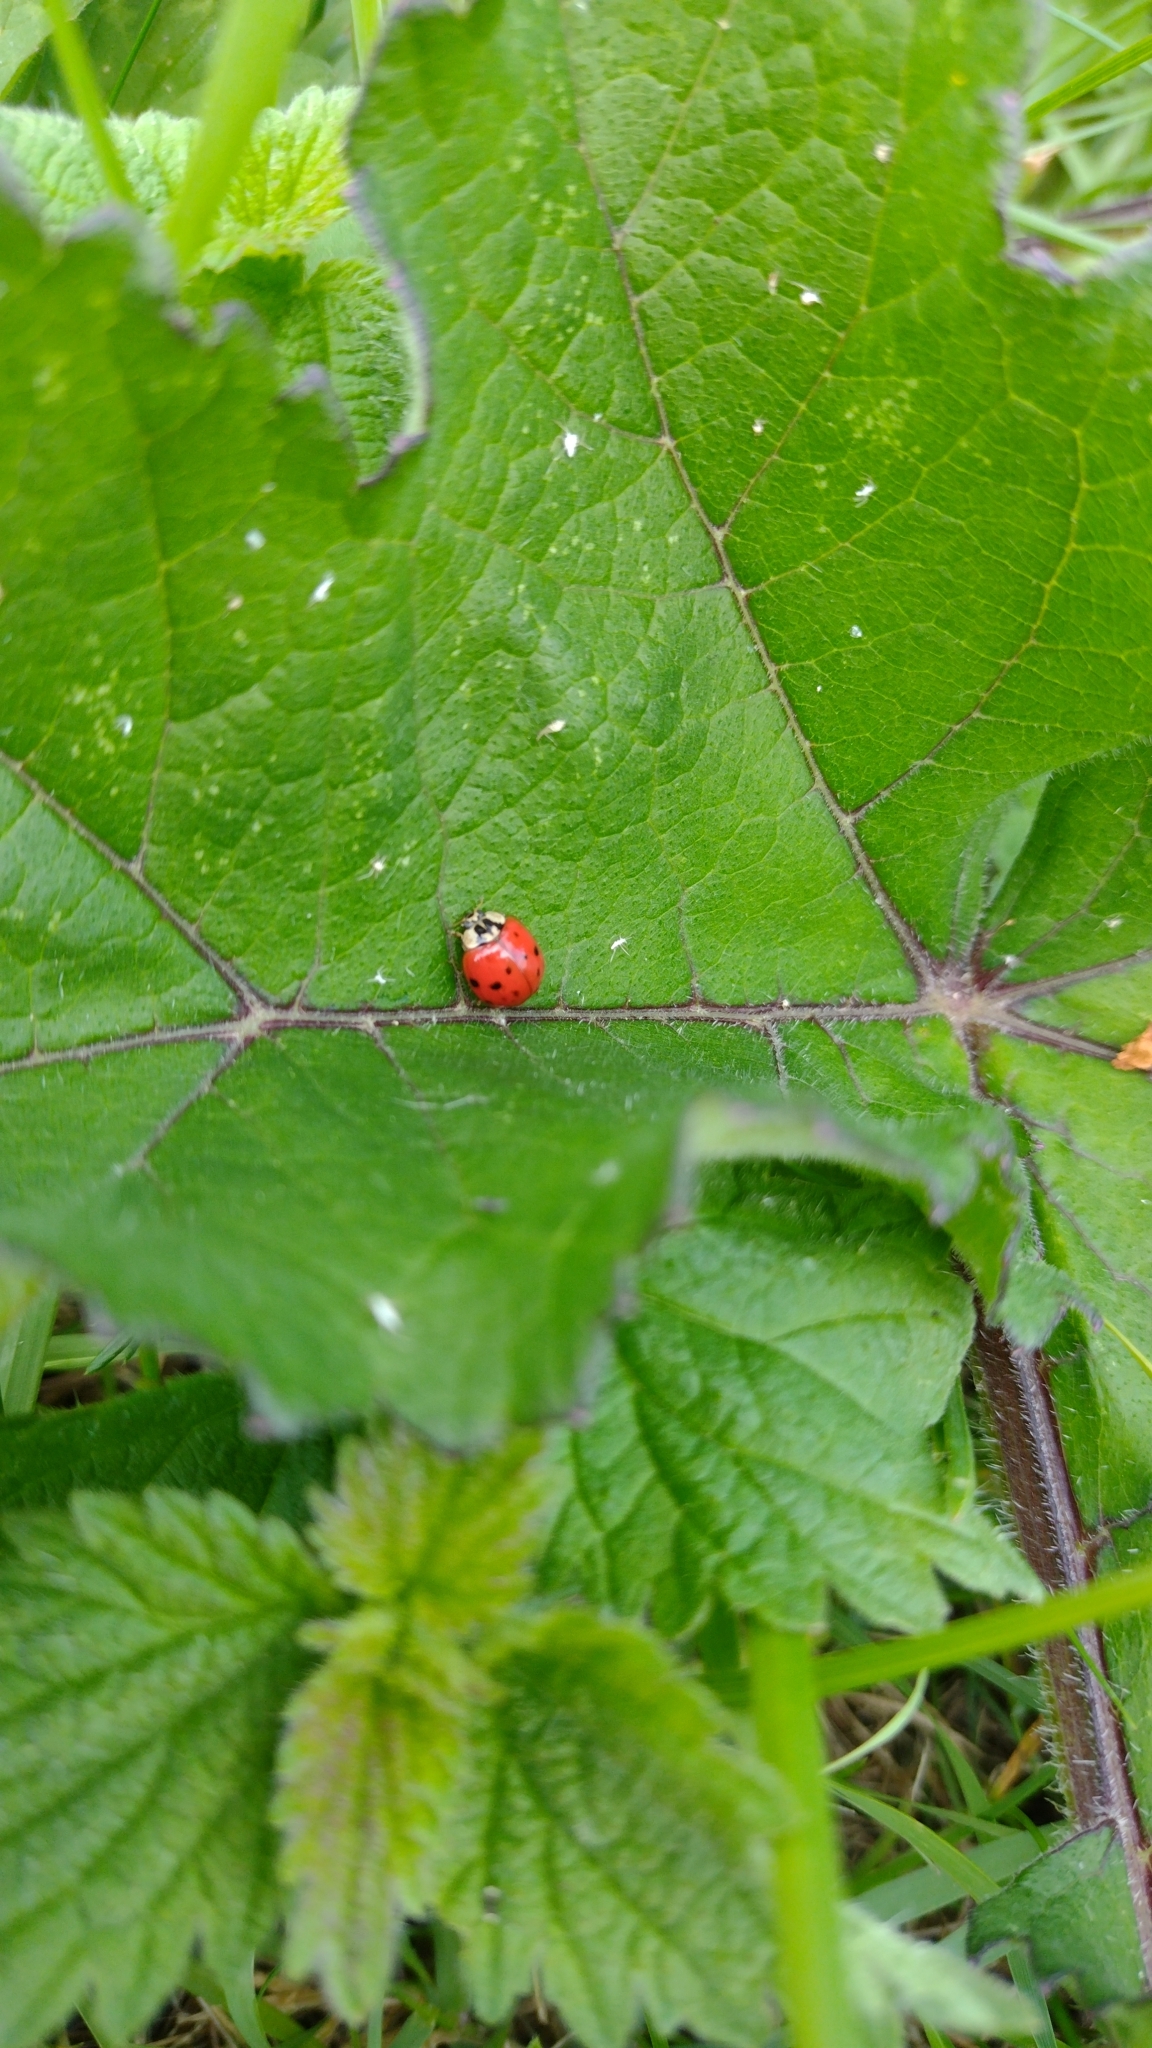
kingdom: Animalia
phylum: Arthropoda
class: Insecta
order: Coleoptera
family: Coccinellidae
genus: Harmonia
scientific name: Harmonia axyridis
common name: Harlequin ladybird
